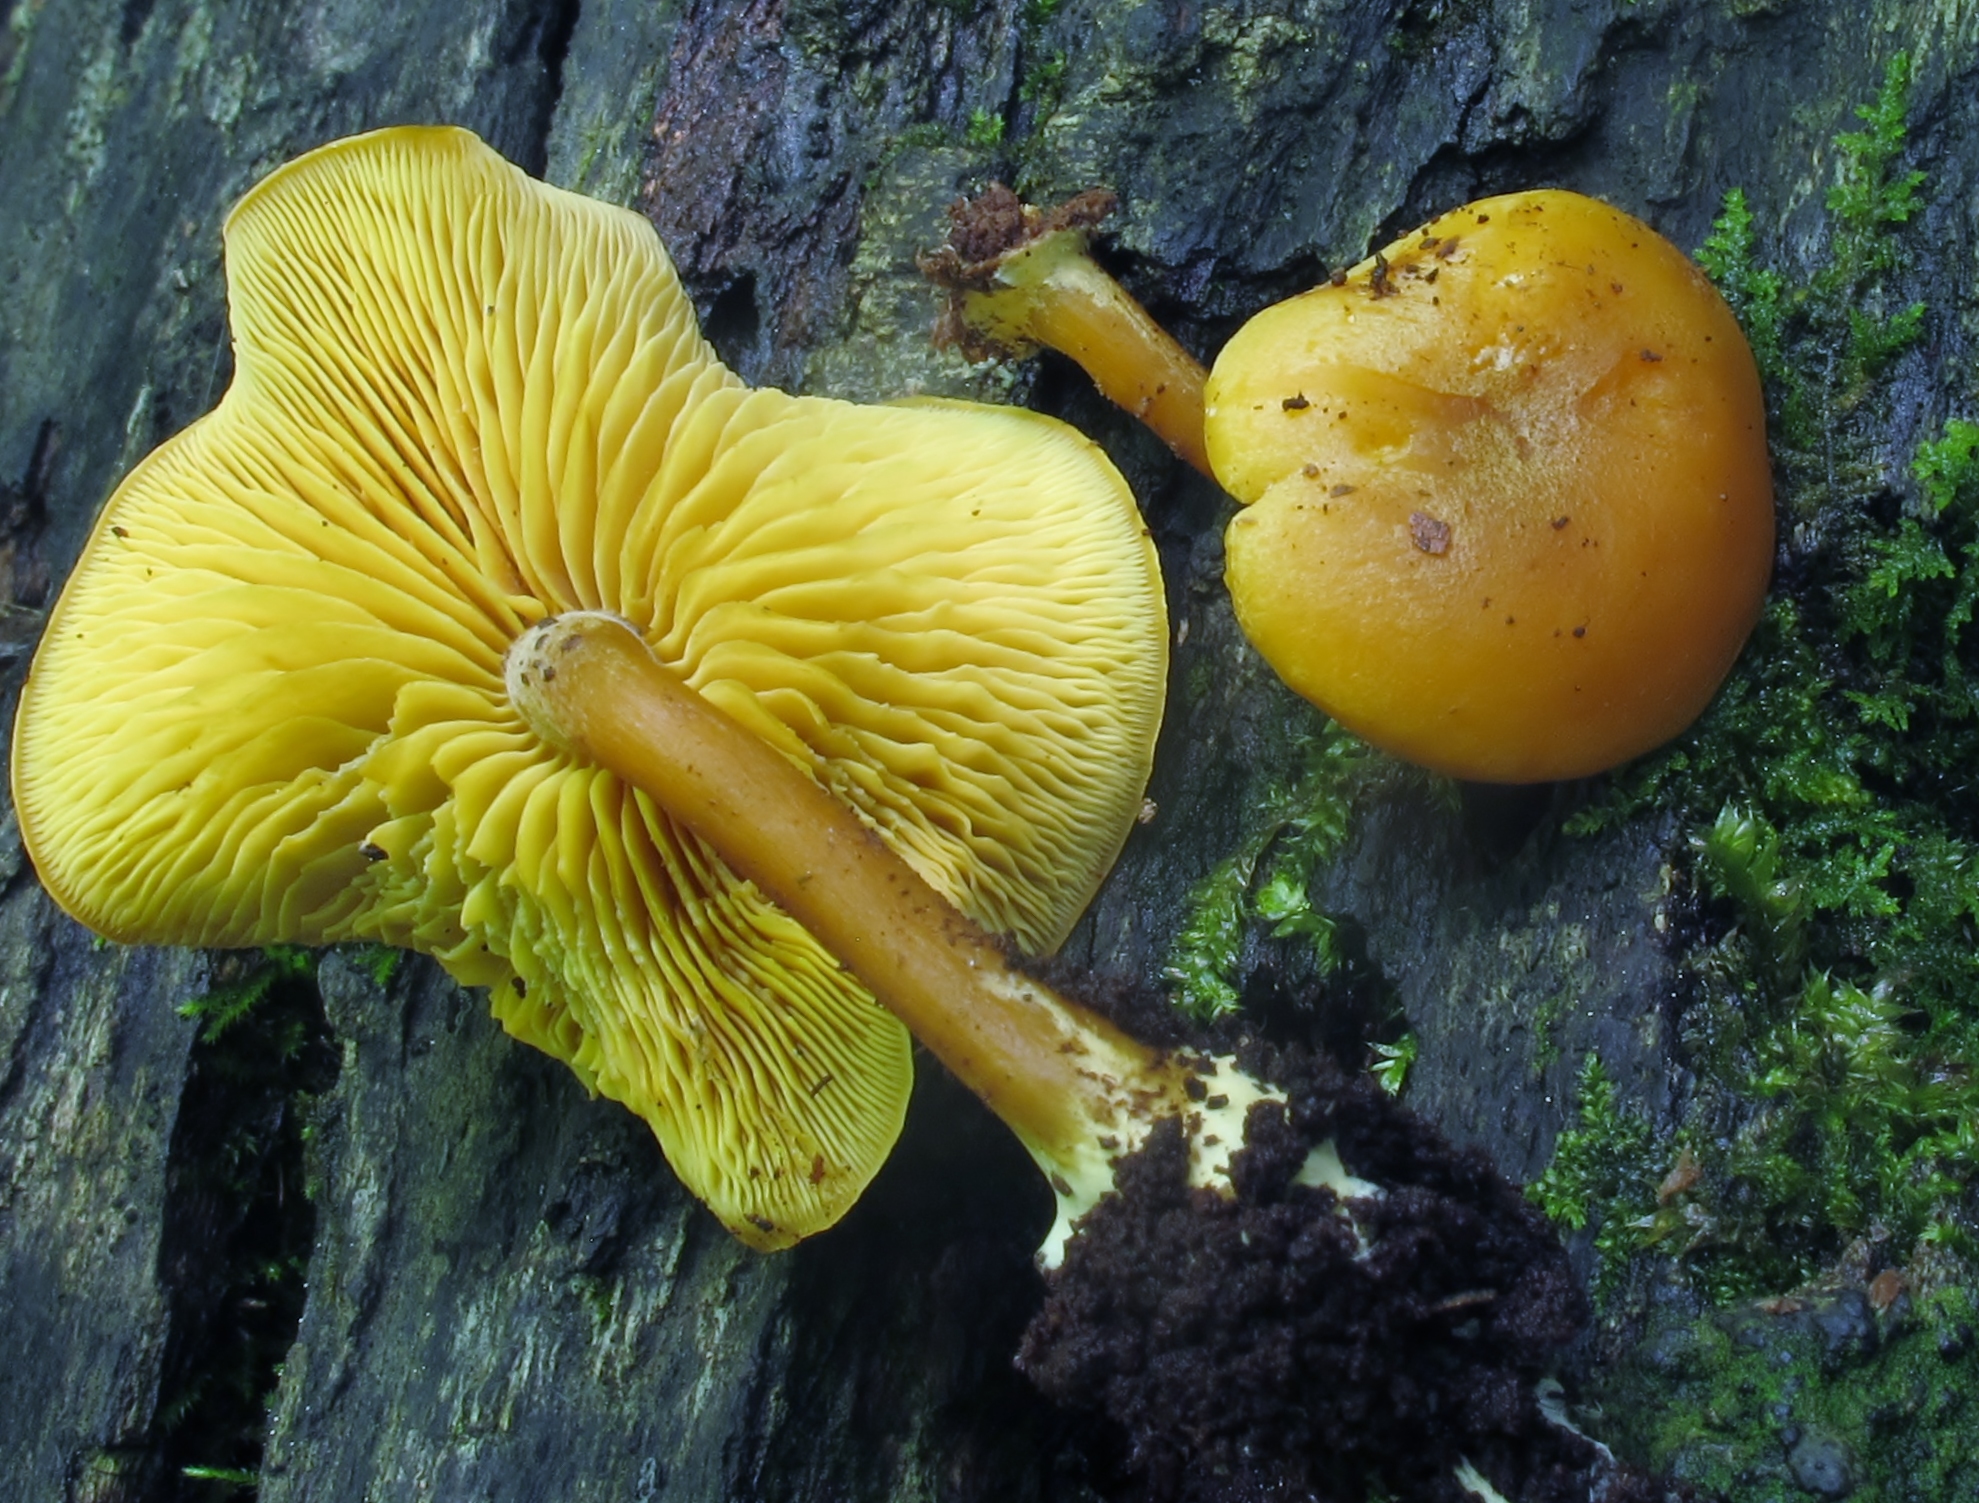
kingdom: Fungi
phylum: Basidiomycota
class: Agaricomycetes
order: Agaricales
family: Callistosporiaceae
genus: Callistosporium
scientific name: Callistosporium luteo-olivaceum
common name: Olive lute
